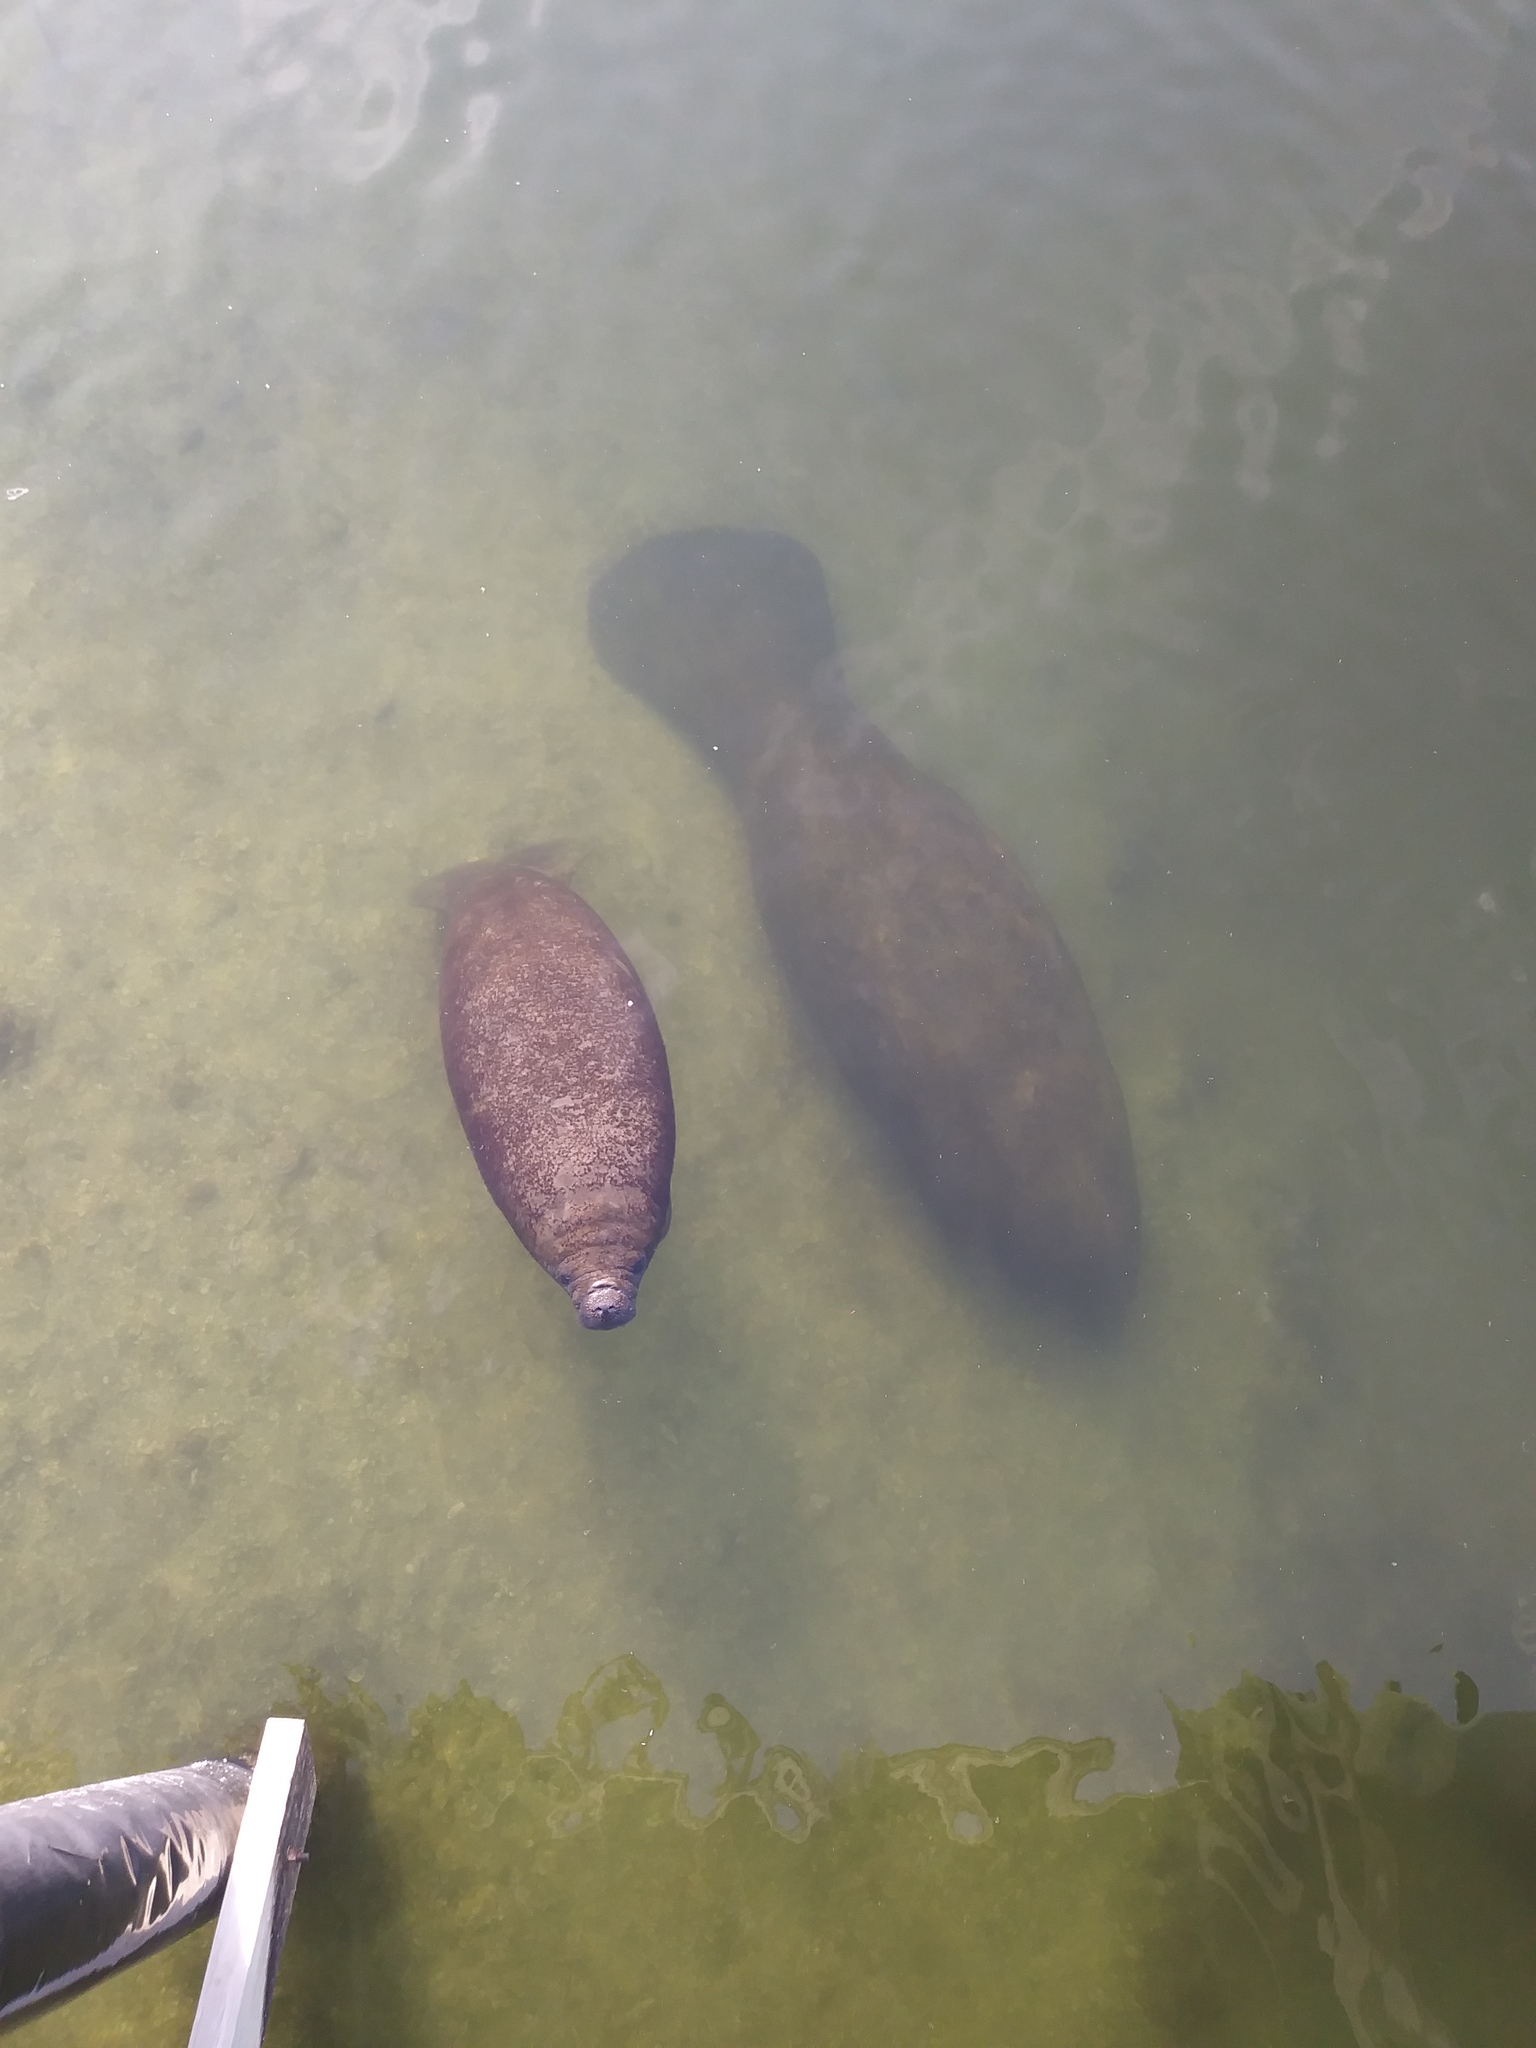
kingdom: Animalia
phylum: Chordata
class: Mammalia
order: Sirenia
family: Trichechidae
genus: Trichechus
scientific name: Trichechus manatus
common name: West indian manatee
